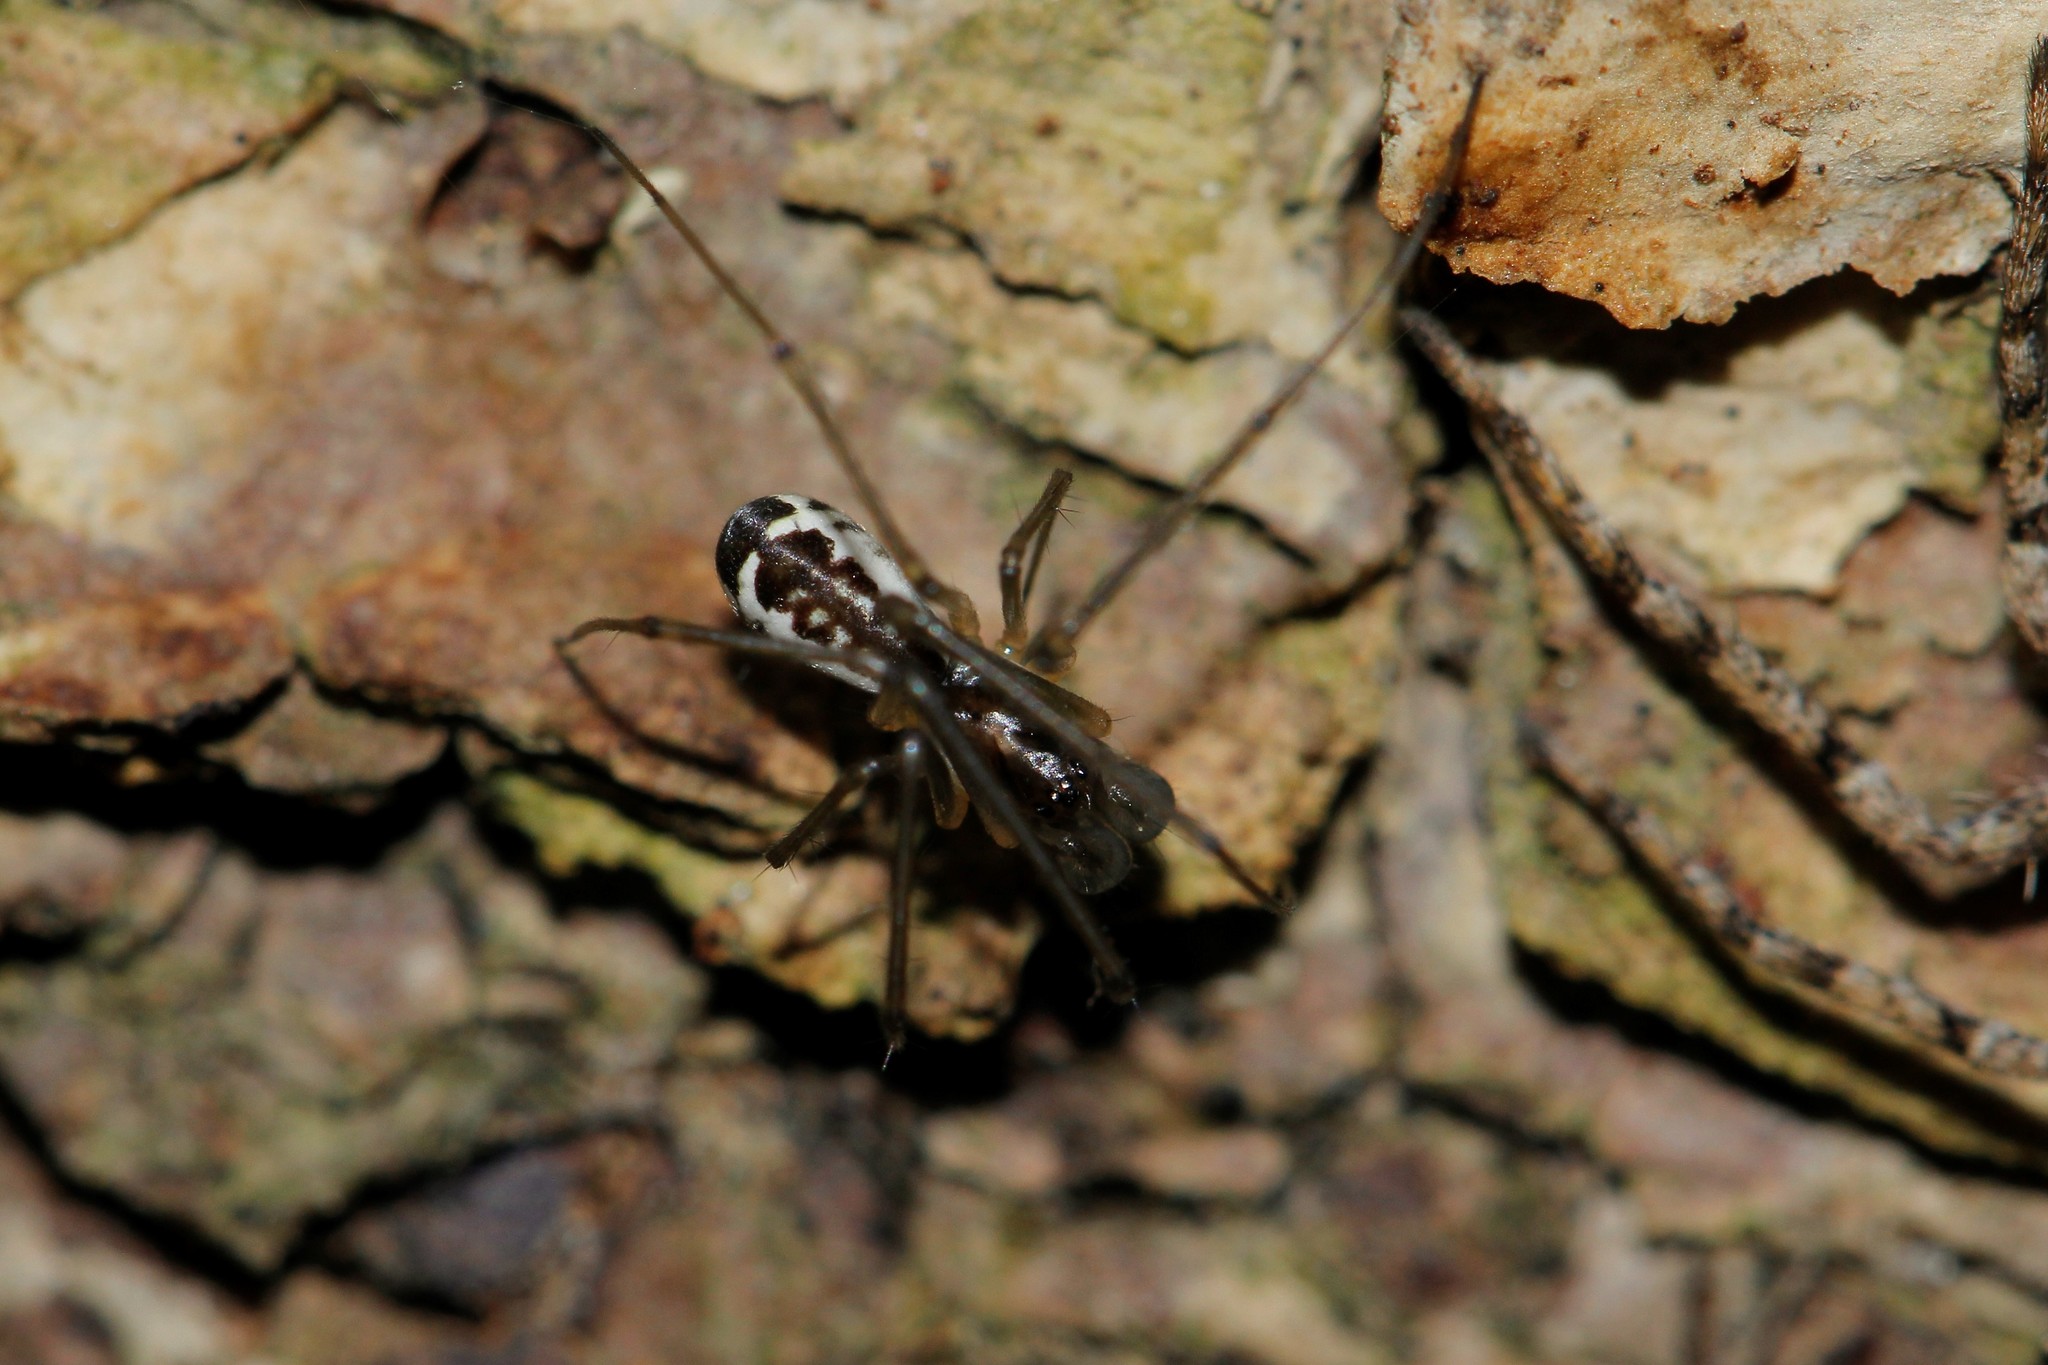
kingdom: Animalia
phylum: Arthropoda
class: Arachnida
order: Araneae
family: Linyphiidae
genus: Neriene
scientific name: Neriene radiata
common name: Filmy dome spider
